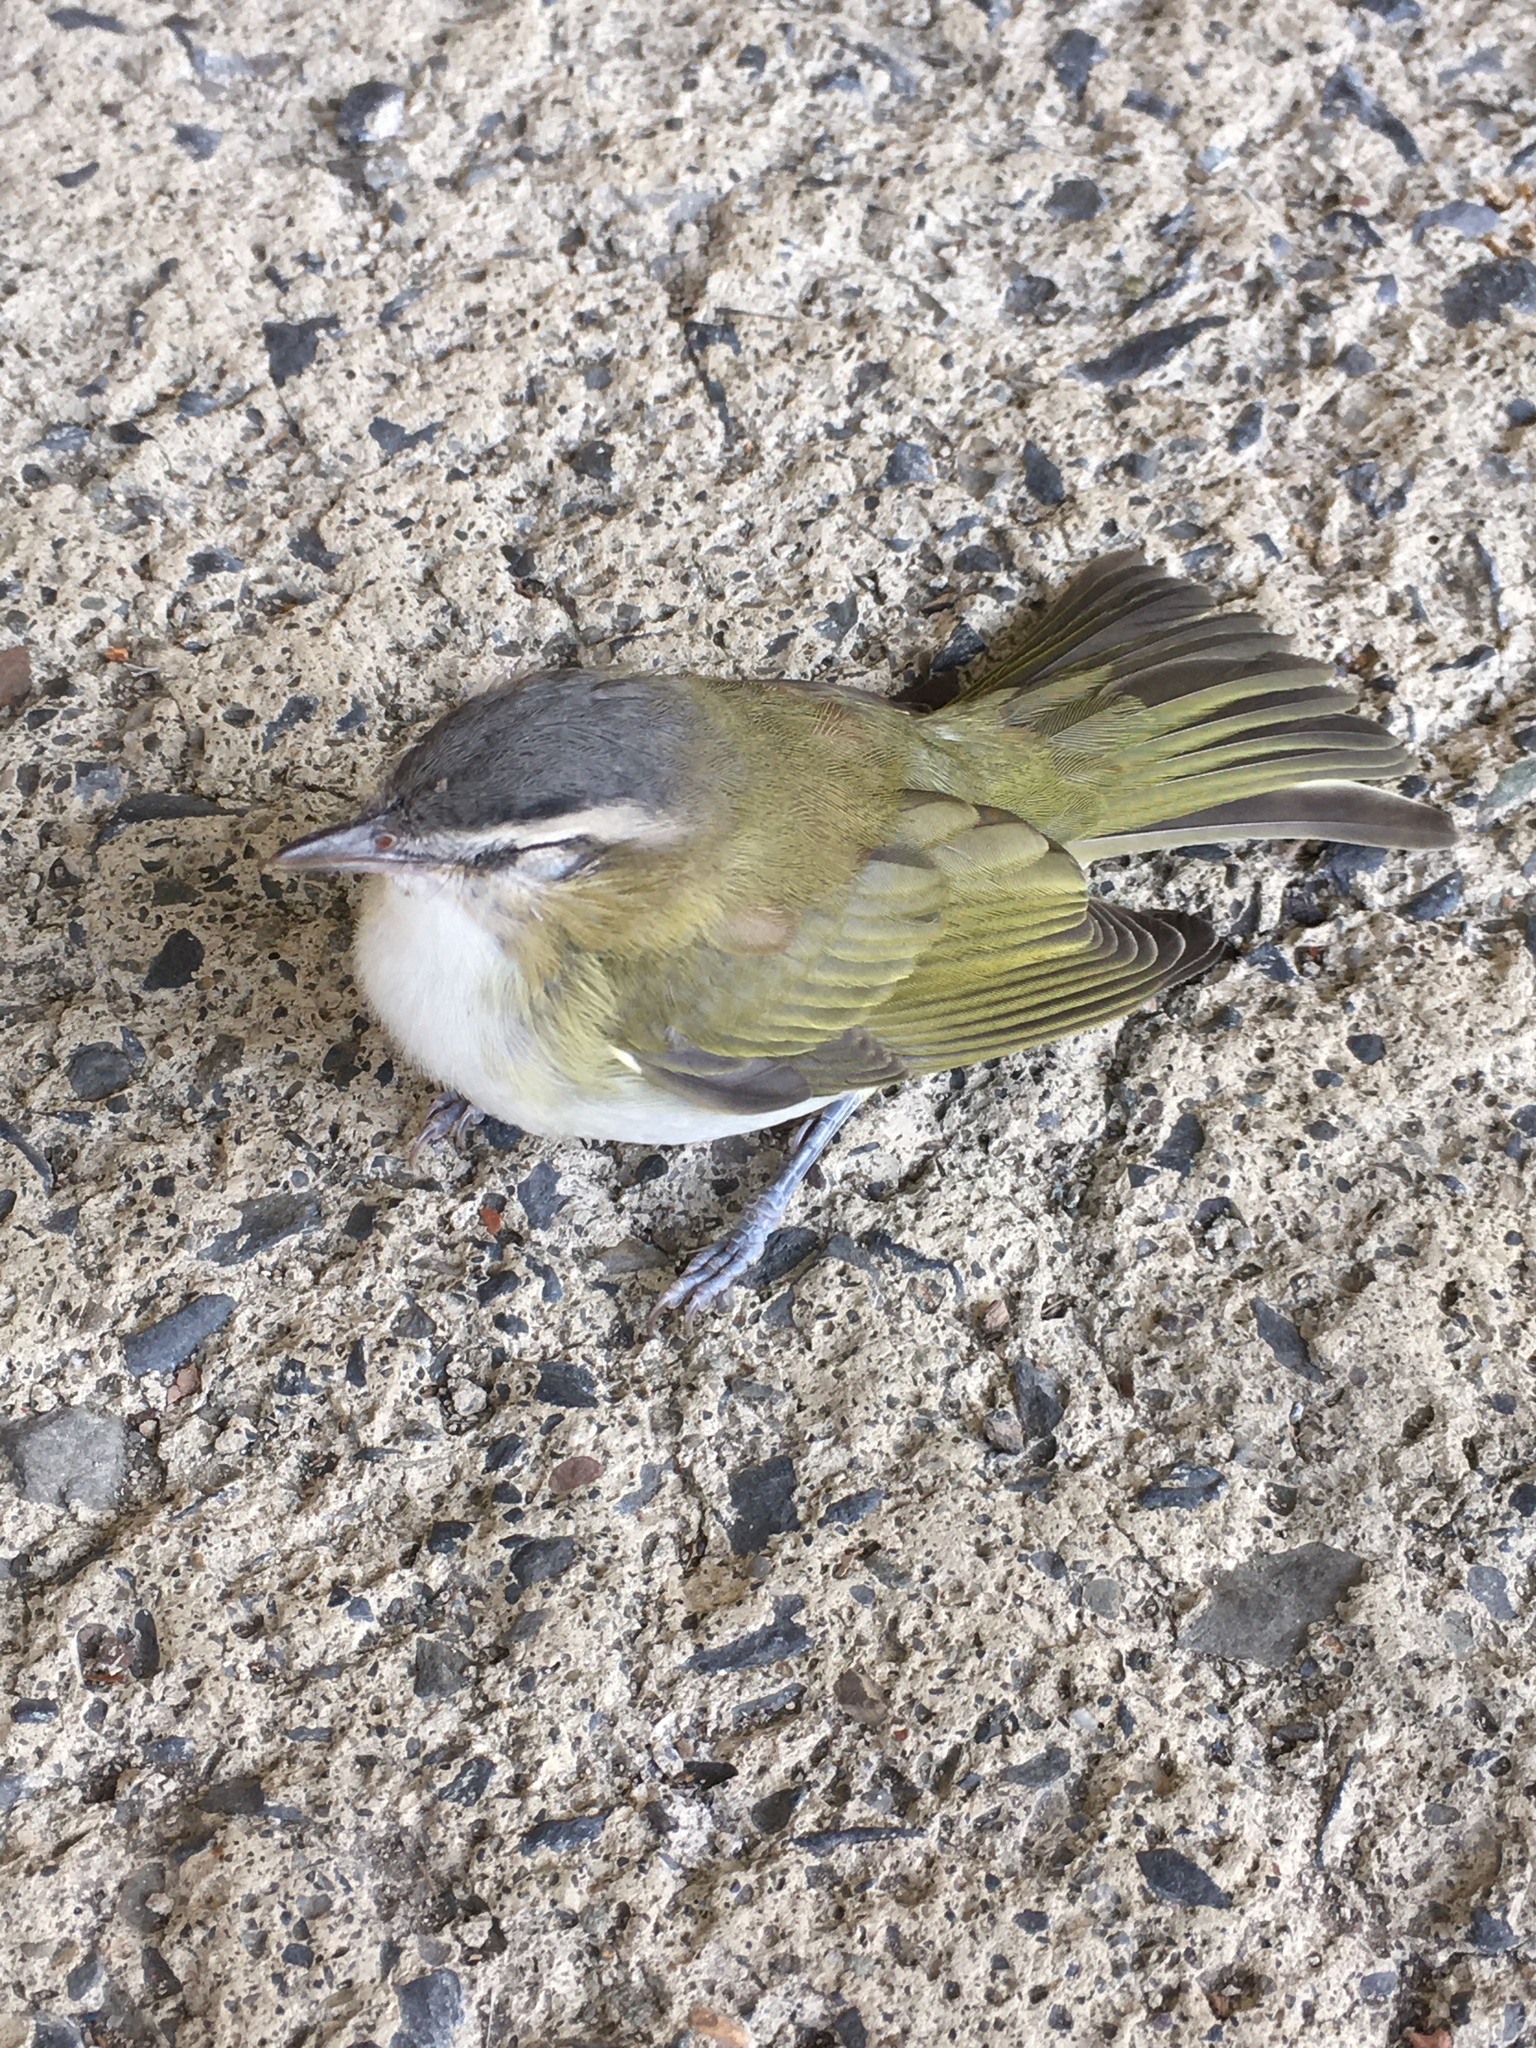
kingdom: Animalia
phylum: Chordata
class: Aves
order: Passeriformes
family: Vireonidae
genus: Vireo
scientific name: Vireo olivaceus
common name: Red-eyed vireo
